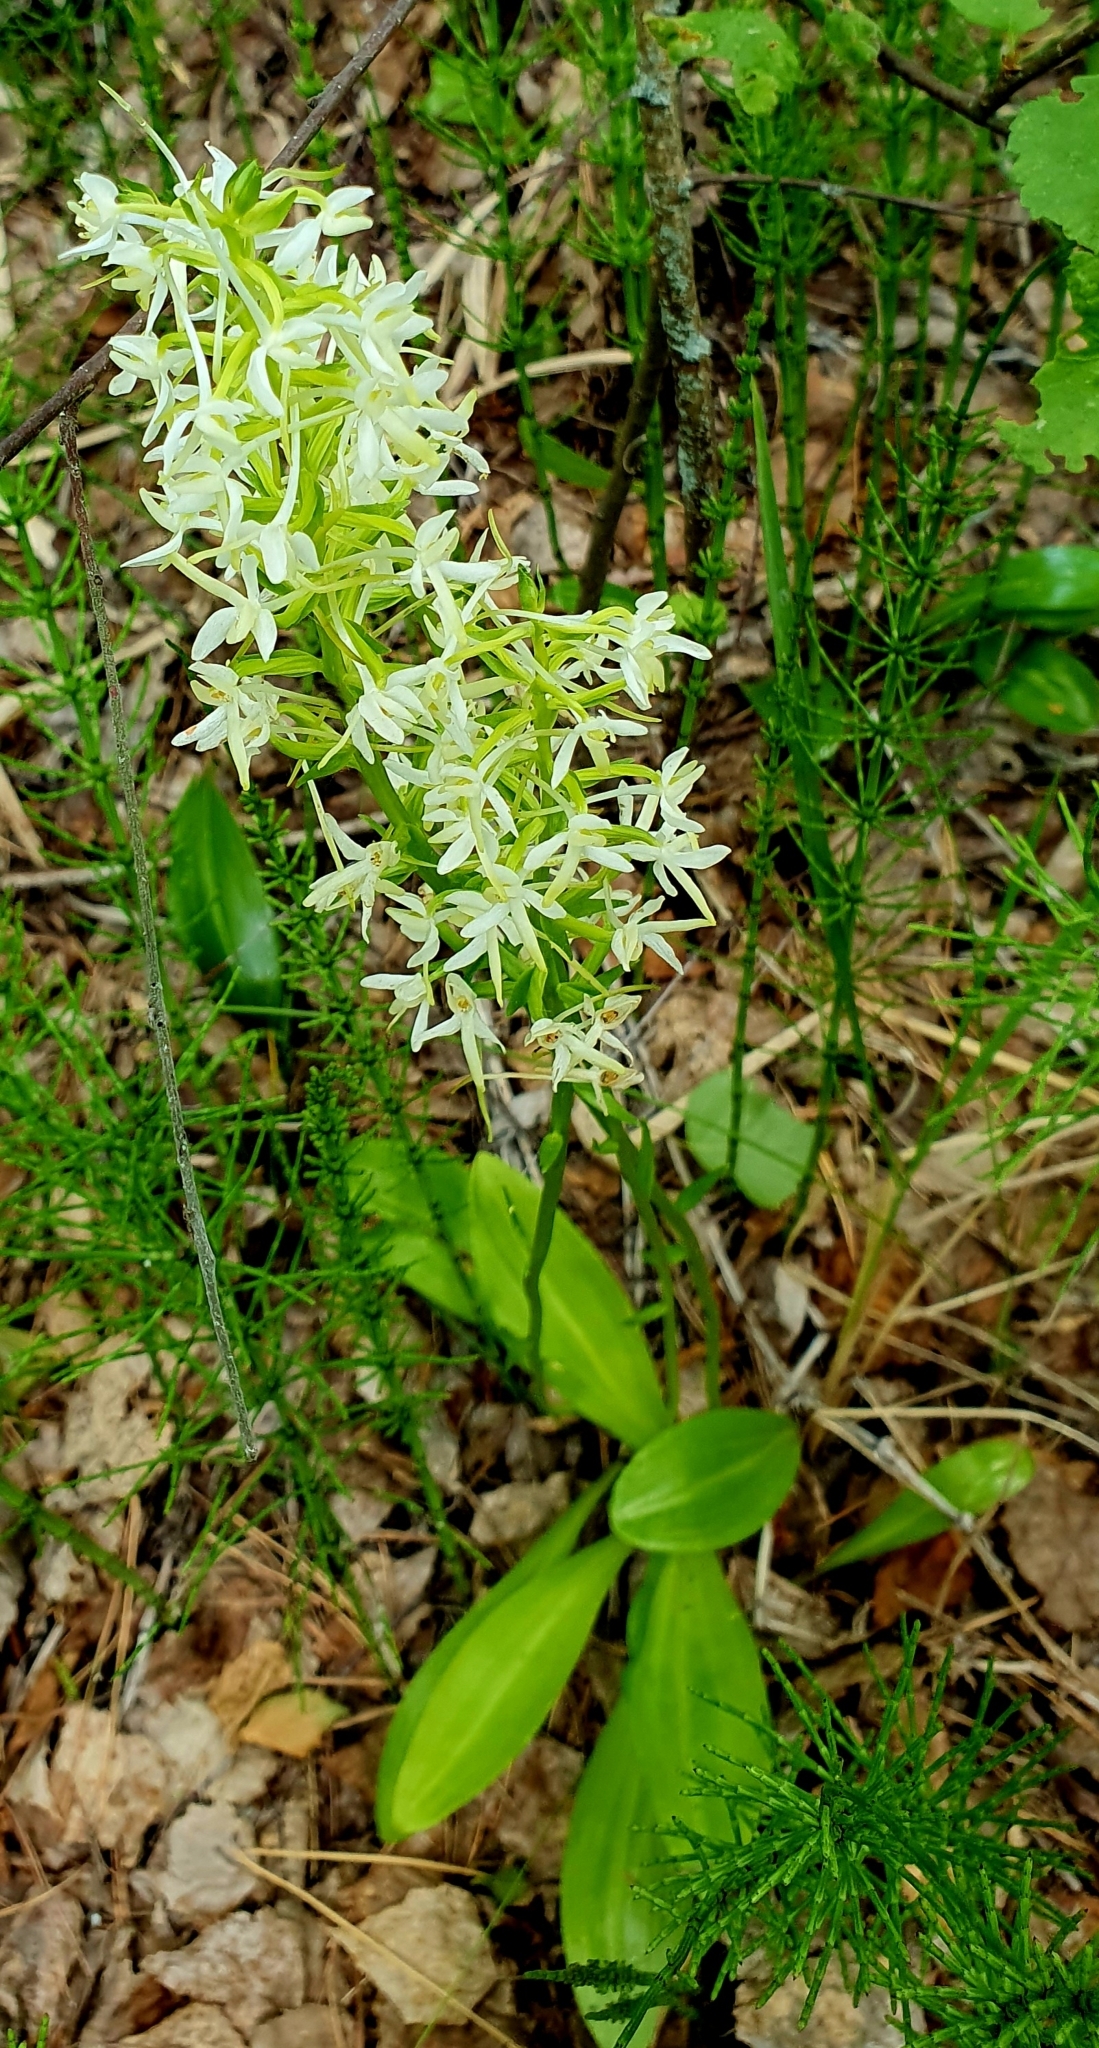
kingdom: Plantae
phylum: Tracheophyta
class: Liliopsida
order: Asparagales
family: Orchidaceae
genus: Platanthera
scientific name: Platanthera bifolia
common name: Lesser butterfly-orchid
